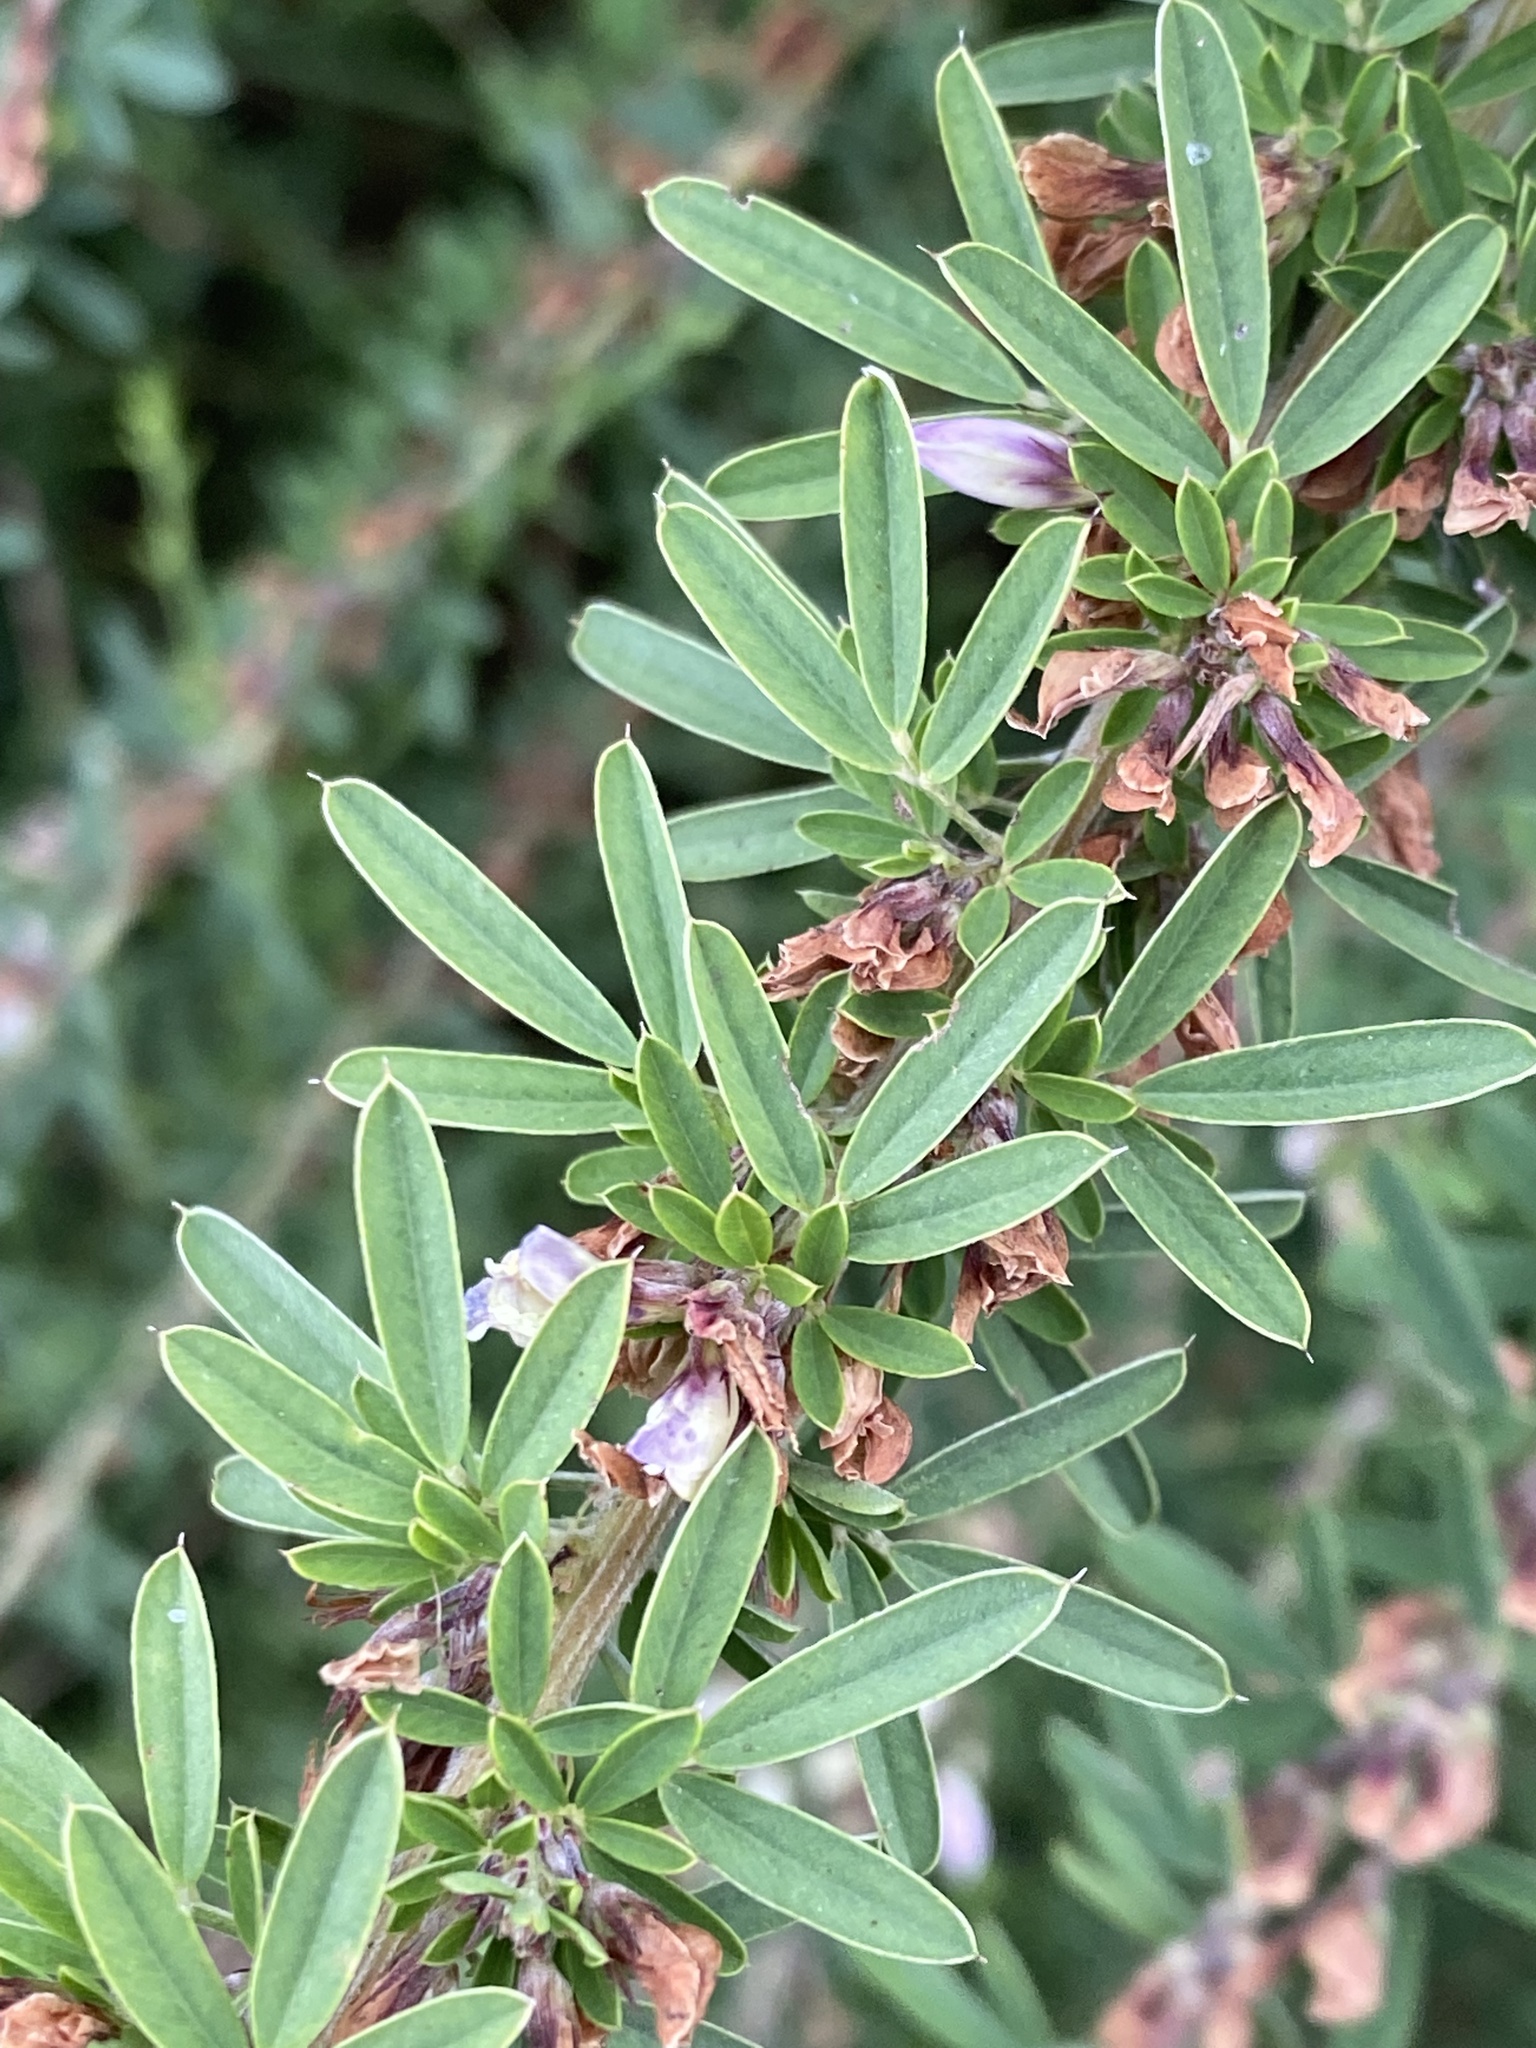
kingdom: Plantae
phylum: Tracheophyta
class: Magnoliopsida
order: Fabales
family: Fabaceae
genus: Lespedeza
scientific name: Lespedeza cuneata
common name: Chinese bush-clover
